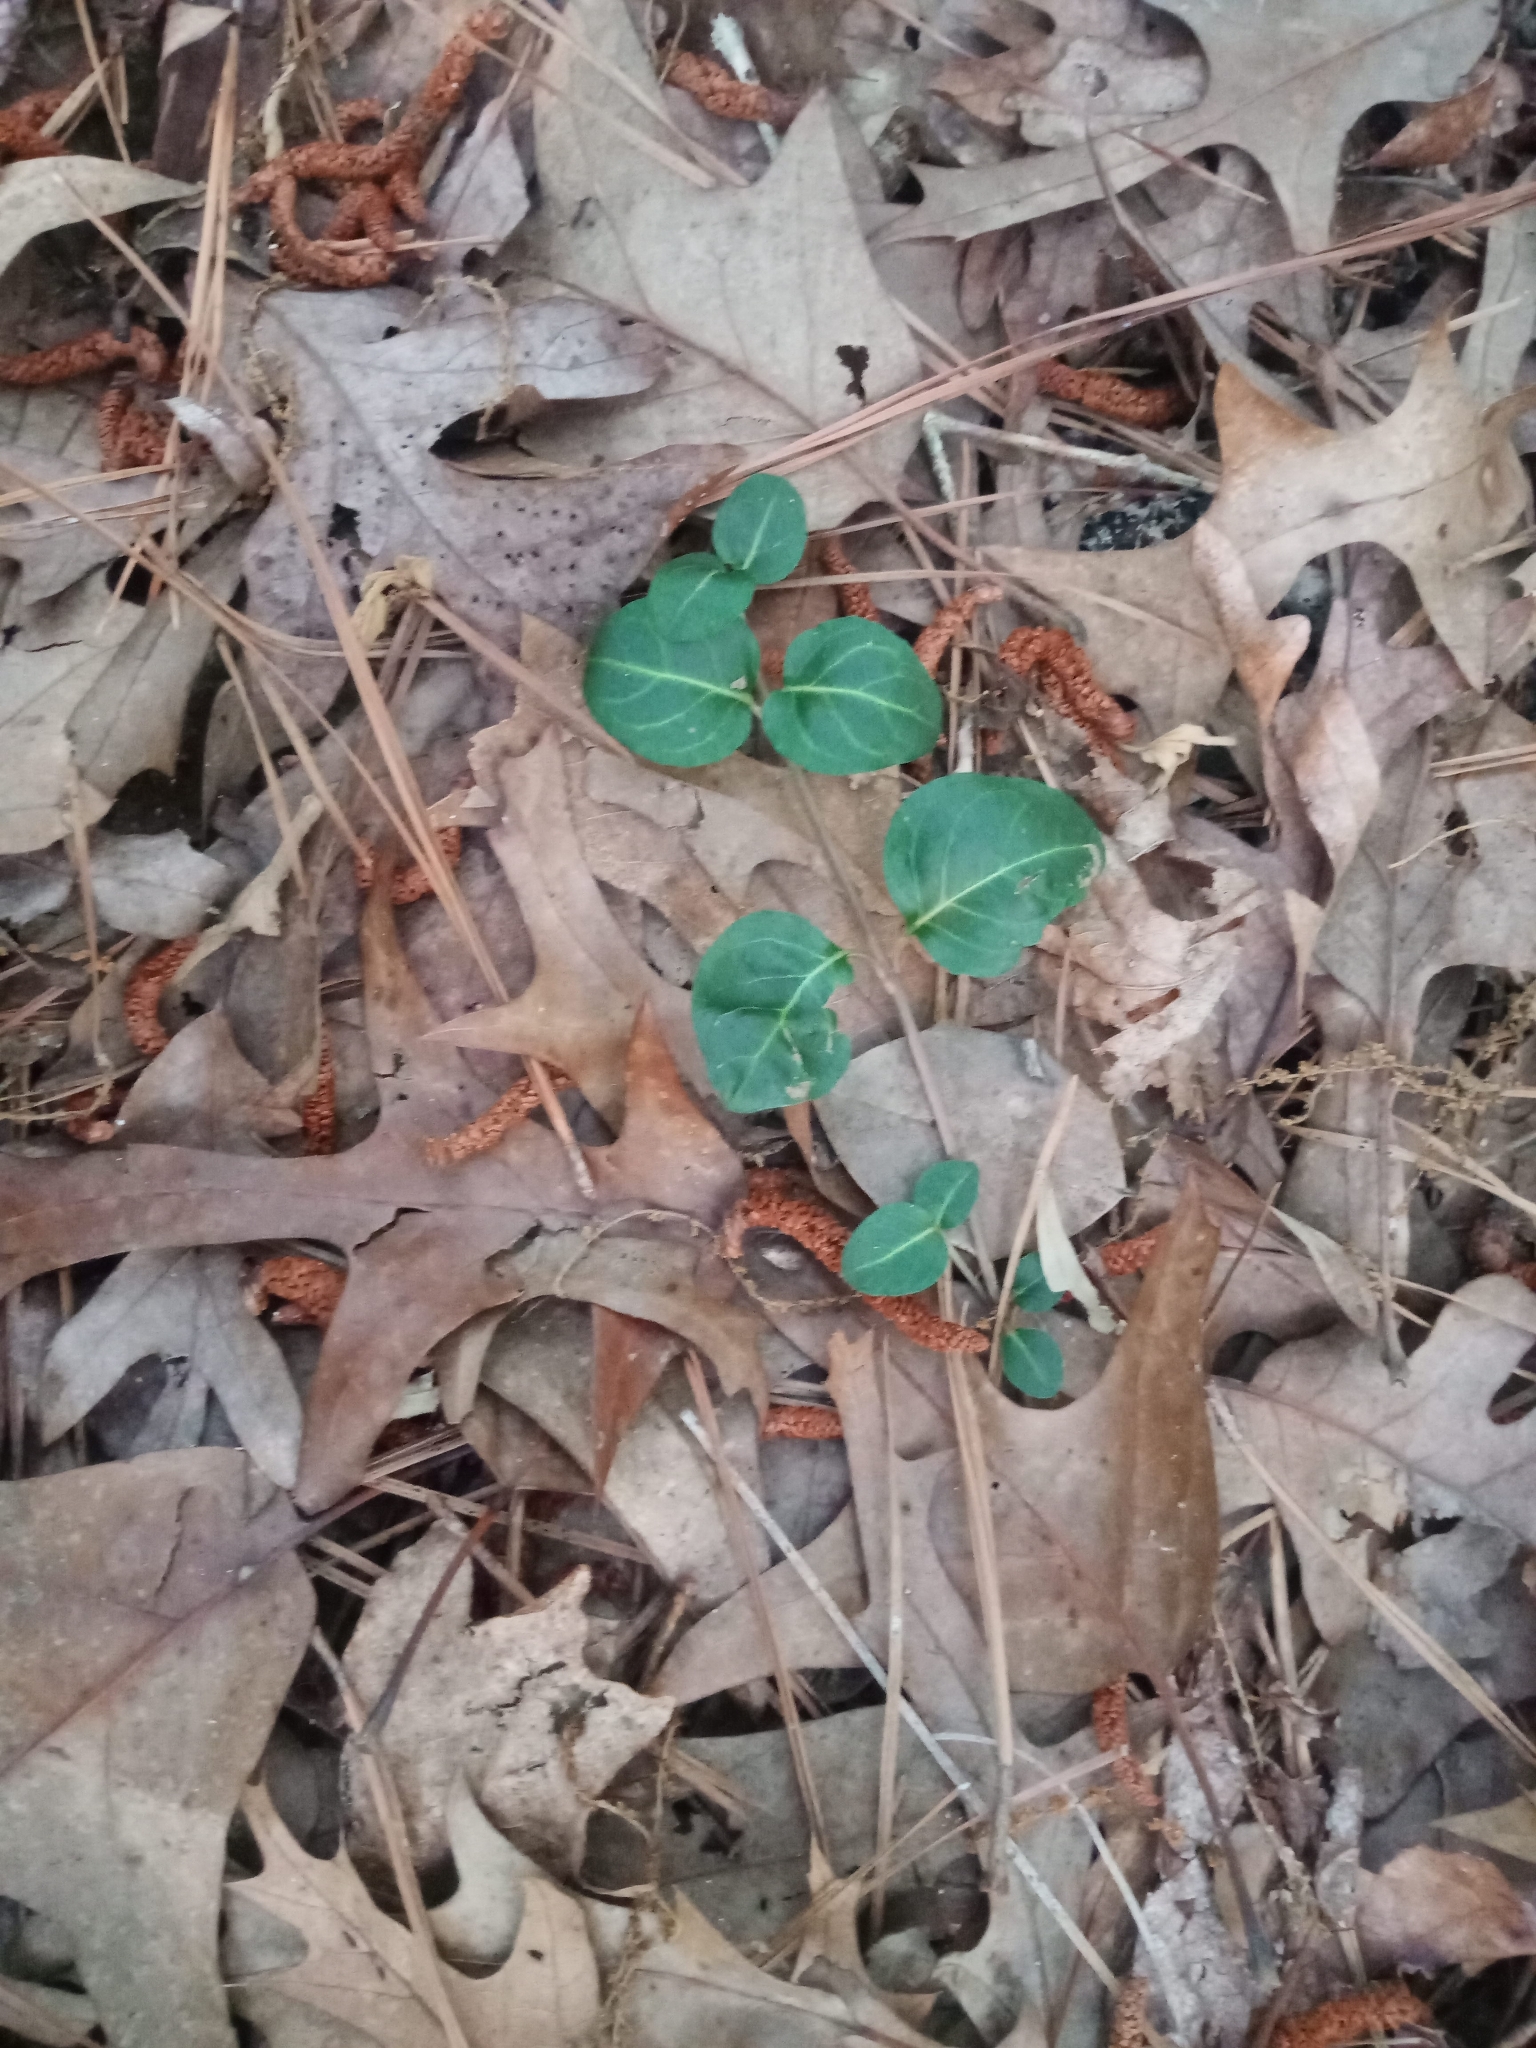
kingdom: Plantae
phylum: Tracheophyta
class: Magnoliopsida
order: Gentianales
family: Rubiaceae
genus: Mitchella
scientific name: Mitchella repens
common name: Partridge-berry
